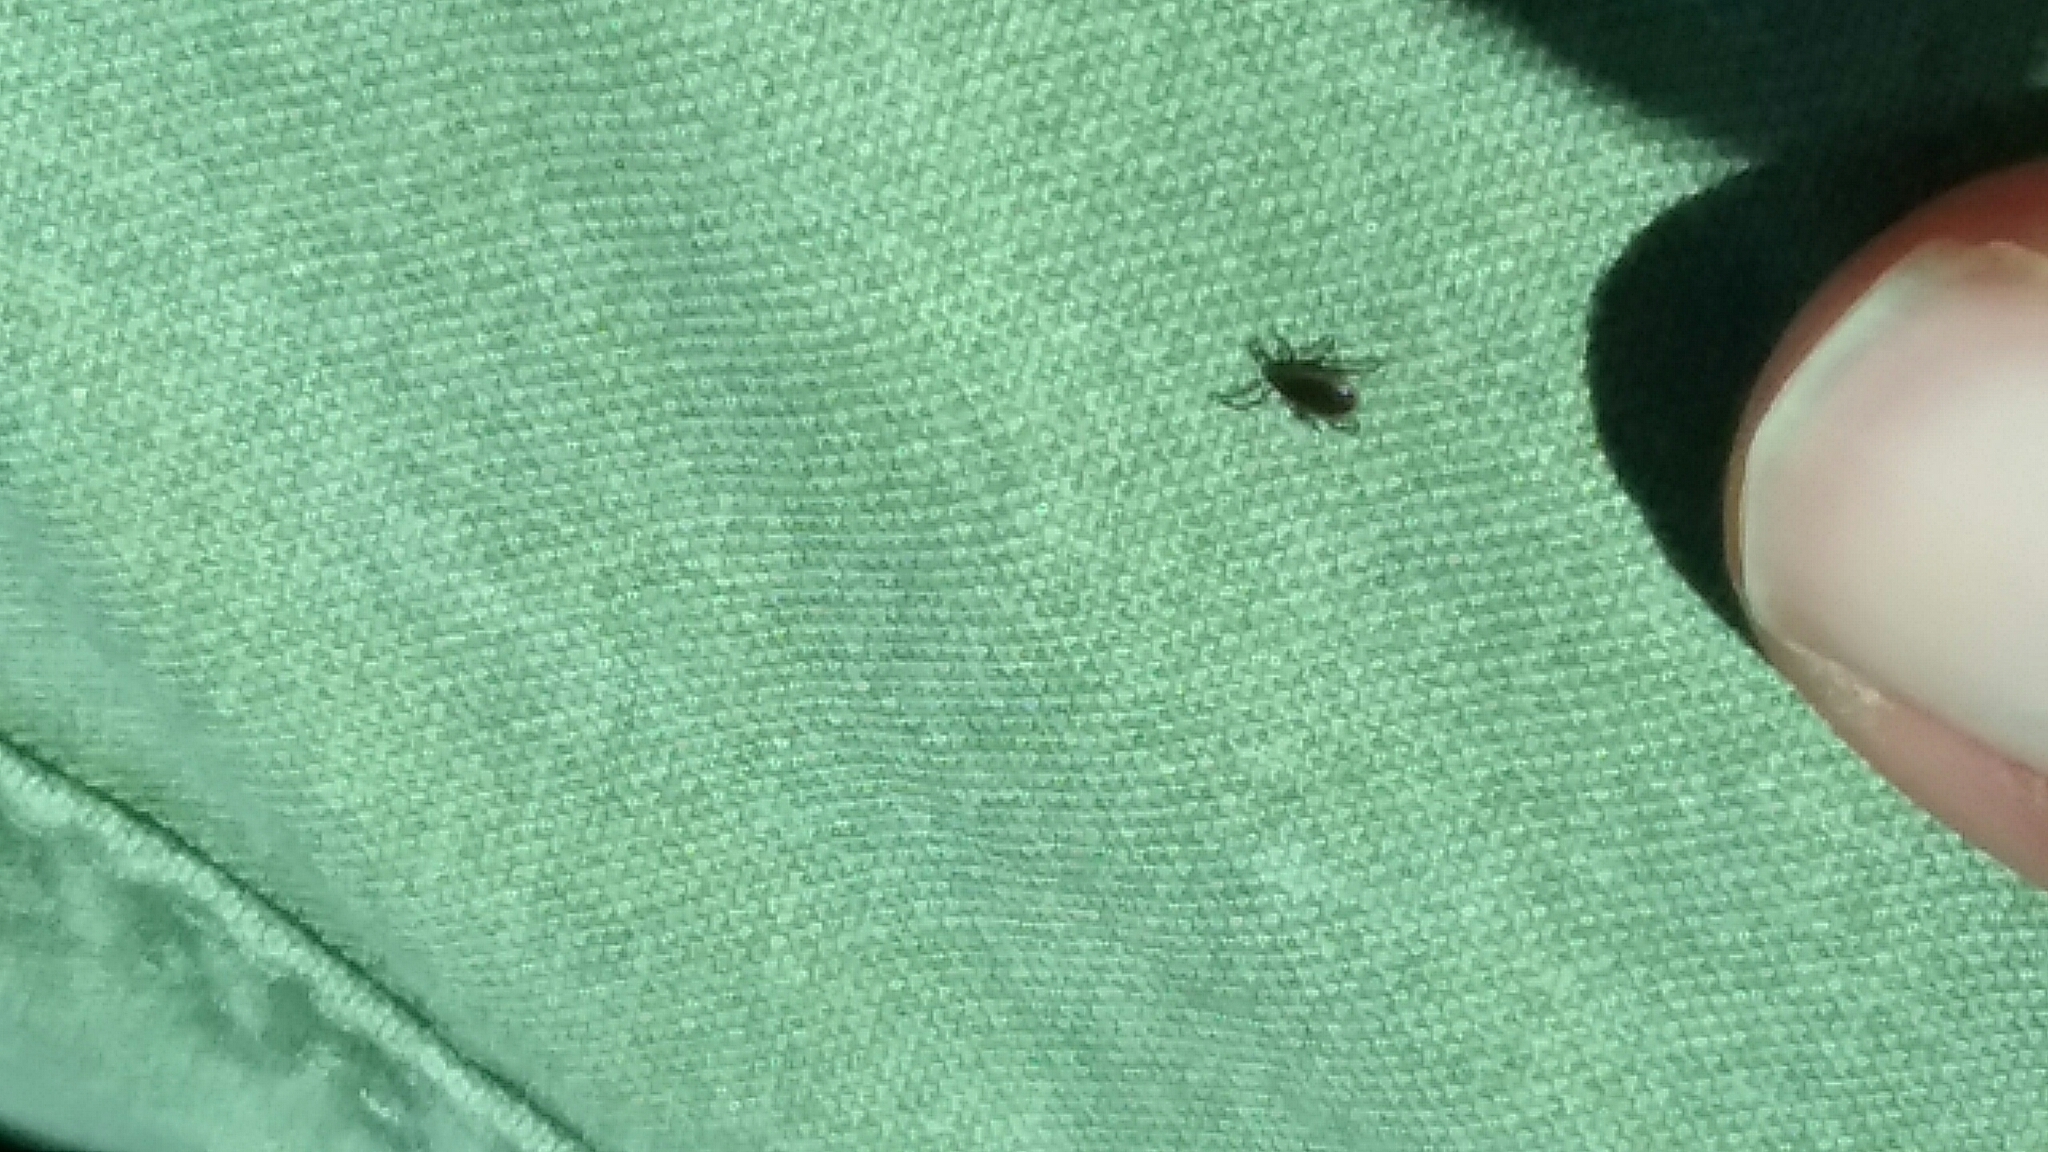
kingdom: Animalia
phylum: Arthropoda
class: Arachnida
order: Ixodida
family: Ixodidae
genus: Ixodes
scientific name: Ixodes scapularis
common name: Black legged tick
